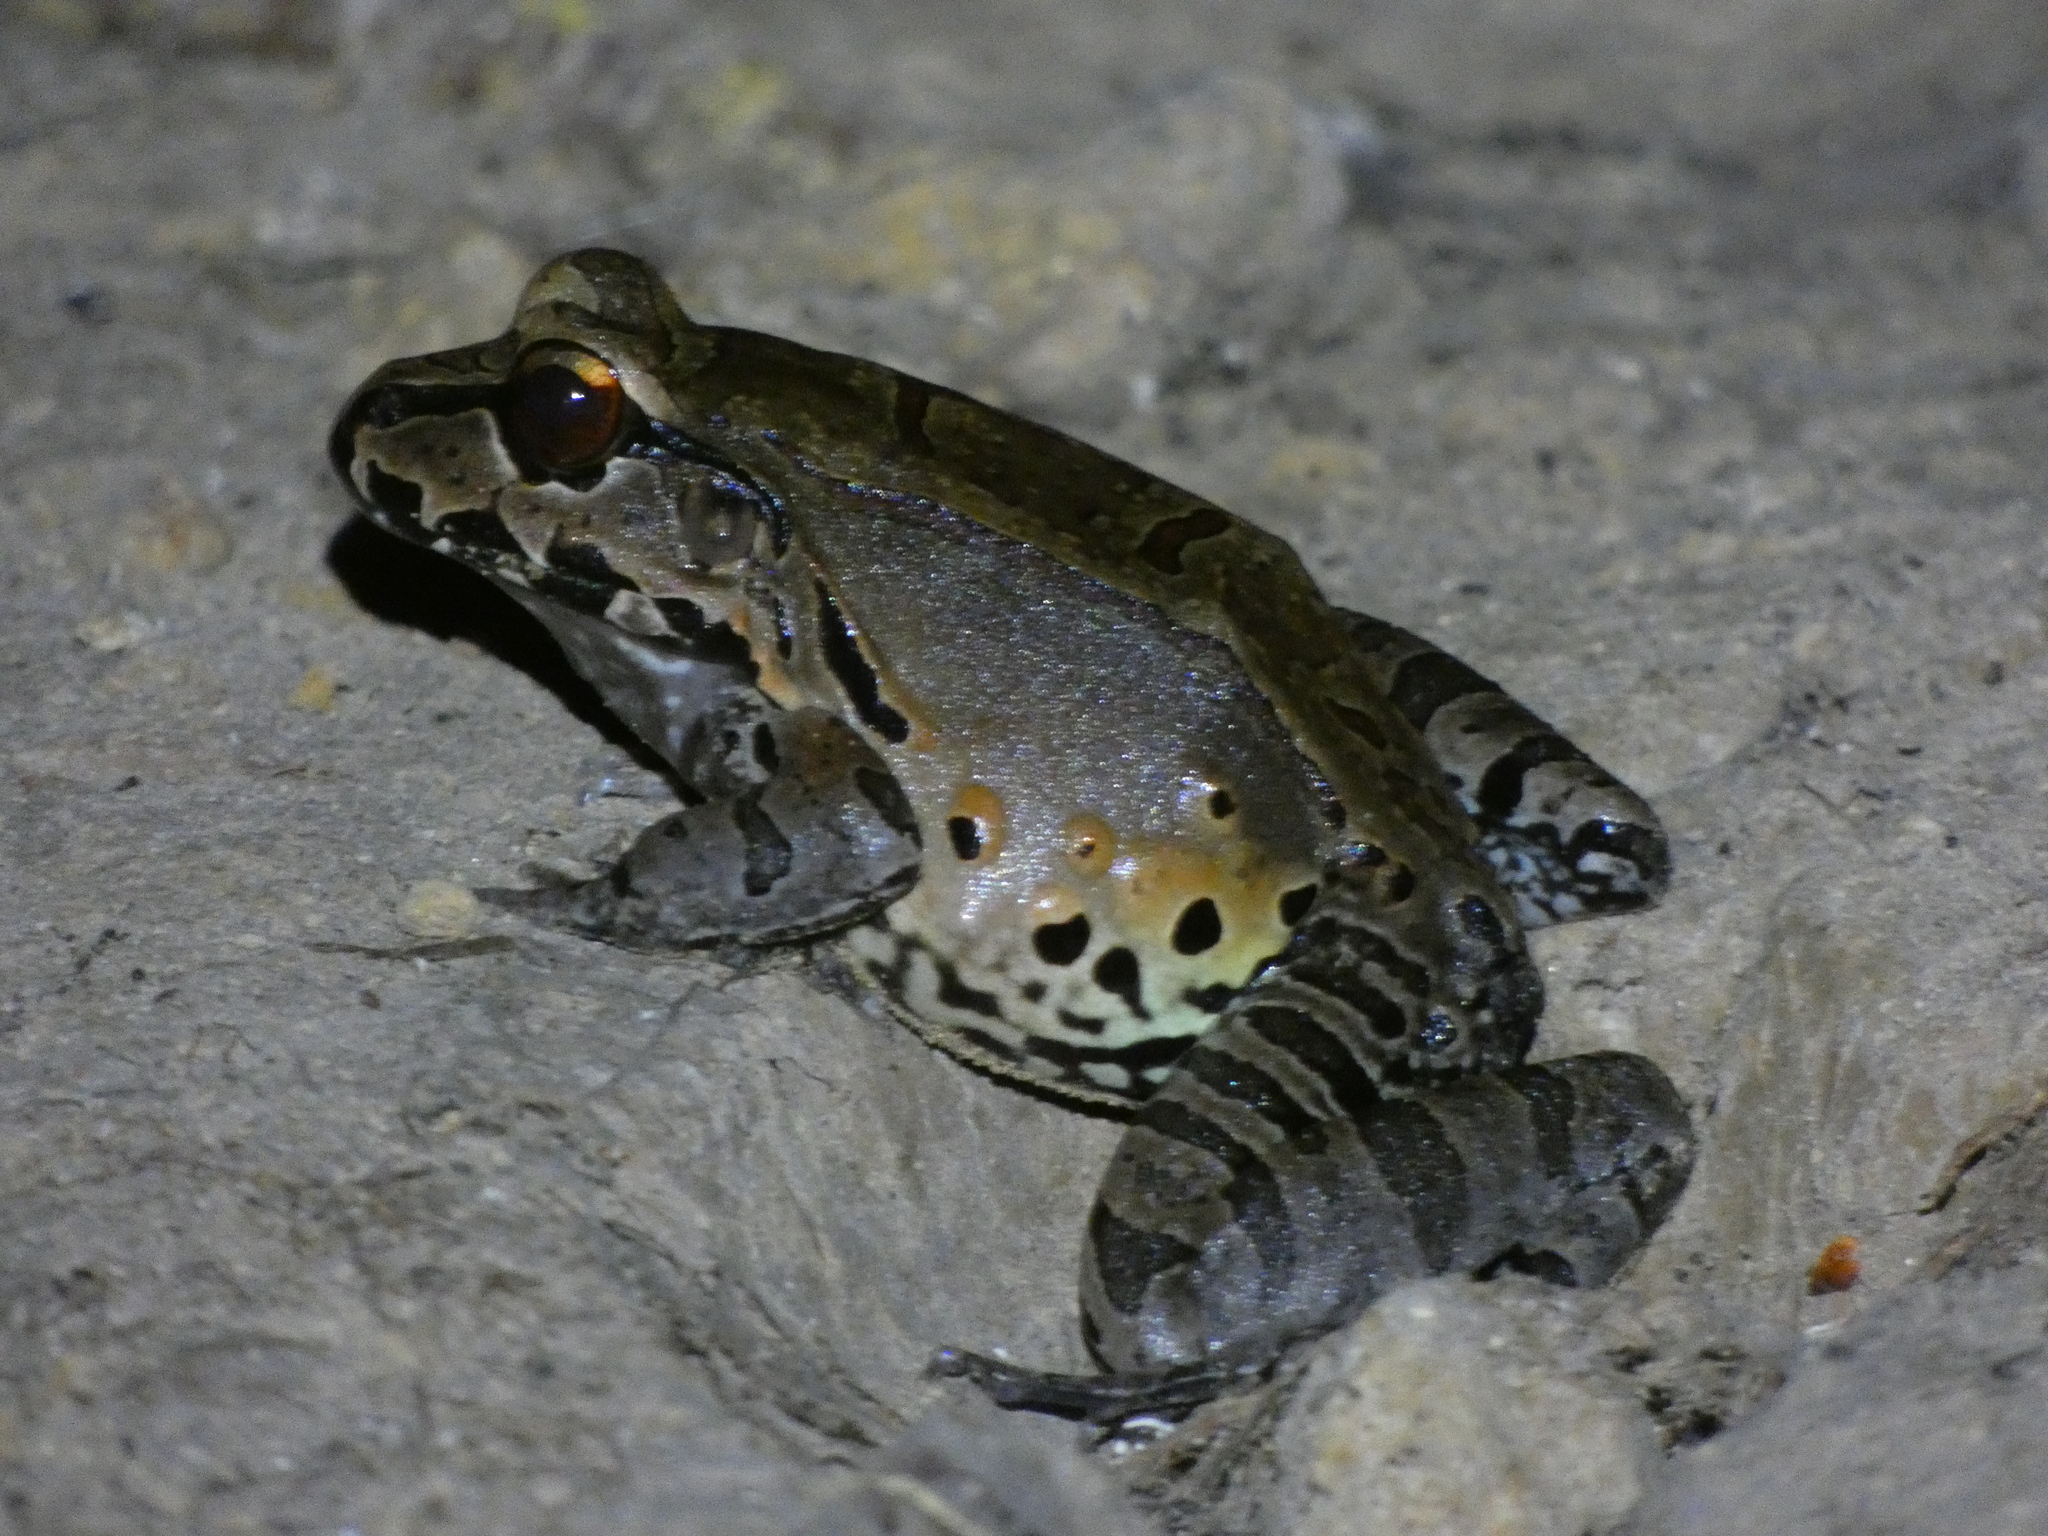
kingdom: Animalia
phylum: Chordata
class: Amphibia
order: Anura
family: Leptodactylidae
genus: Leptodactylus
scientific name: Leptodactylus pentadactylus
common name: Smoky jungle frog
